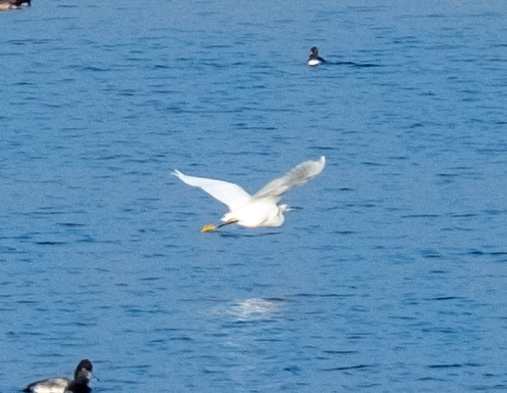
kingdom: Animalia
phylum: Chordata
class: Aves
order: Pelecaniformes
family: Ardeidae
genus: Egretta
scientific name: Egretta thula
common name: Snowy egret
